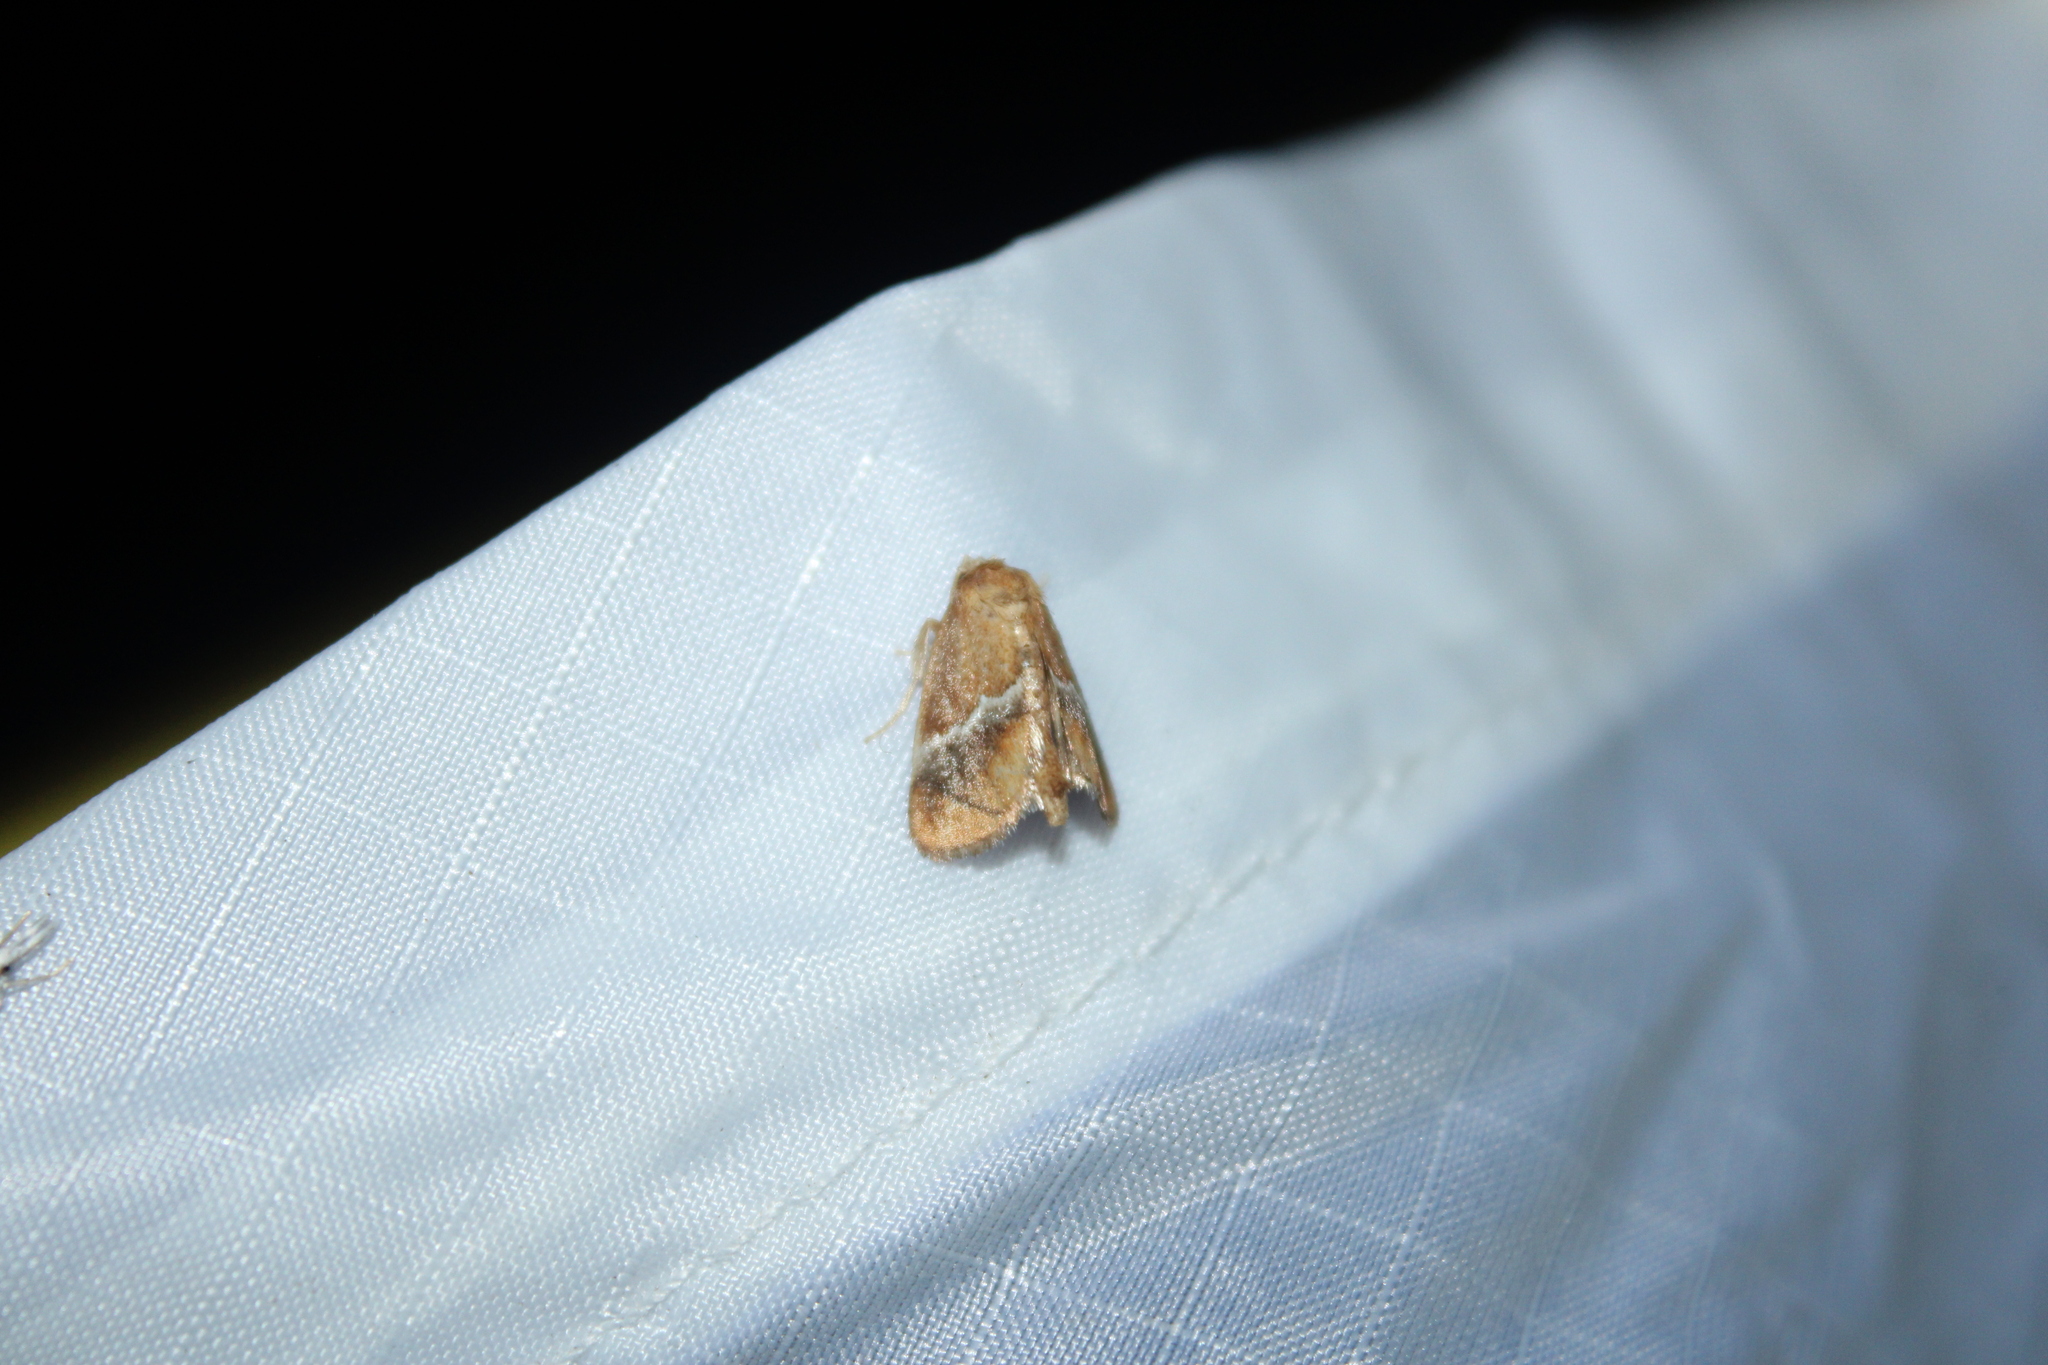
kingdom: Animalia
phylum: Arthropoda
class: Insecta
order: Lepidoptera
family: Limacodidae
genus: Lithacodes
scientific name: Lithacodes fasciola
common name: Yellow-shouldered slug moth
